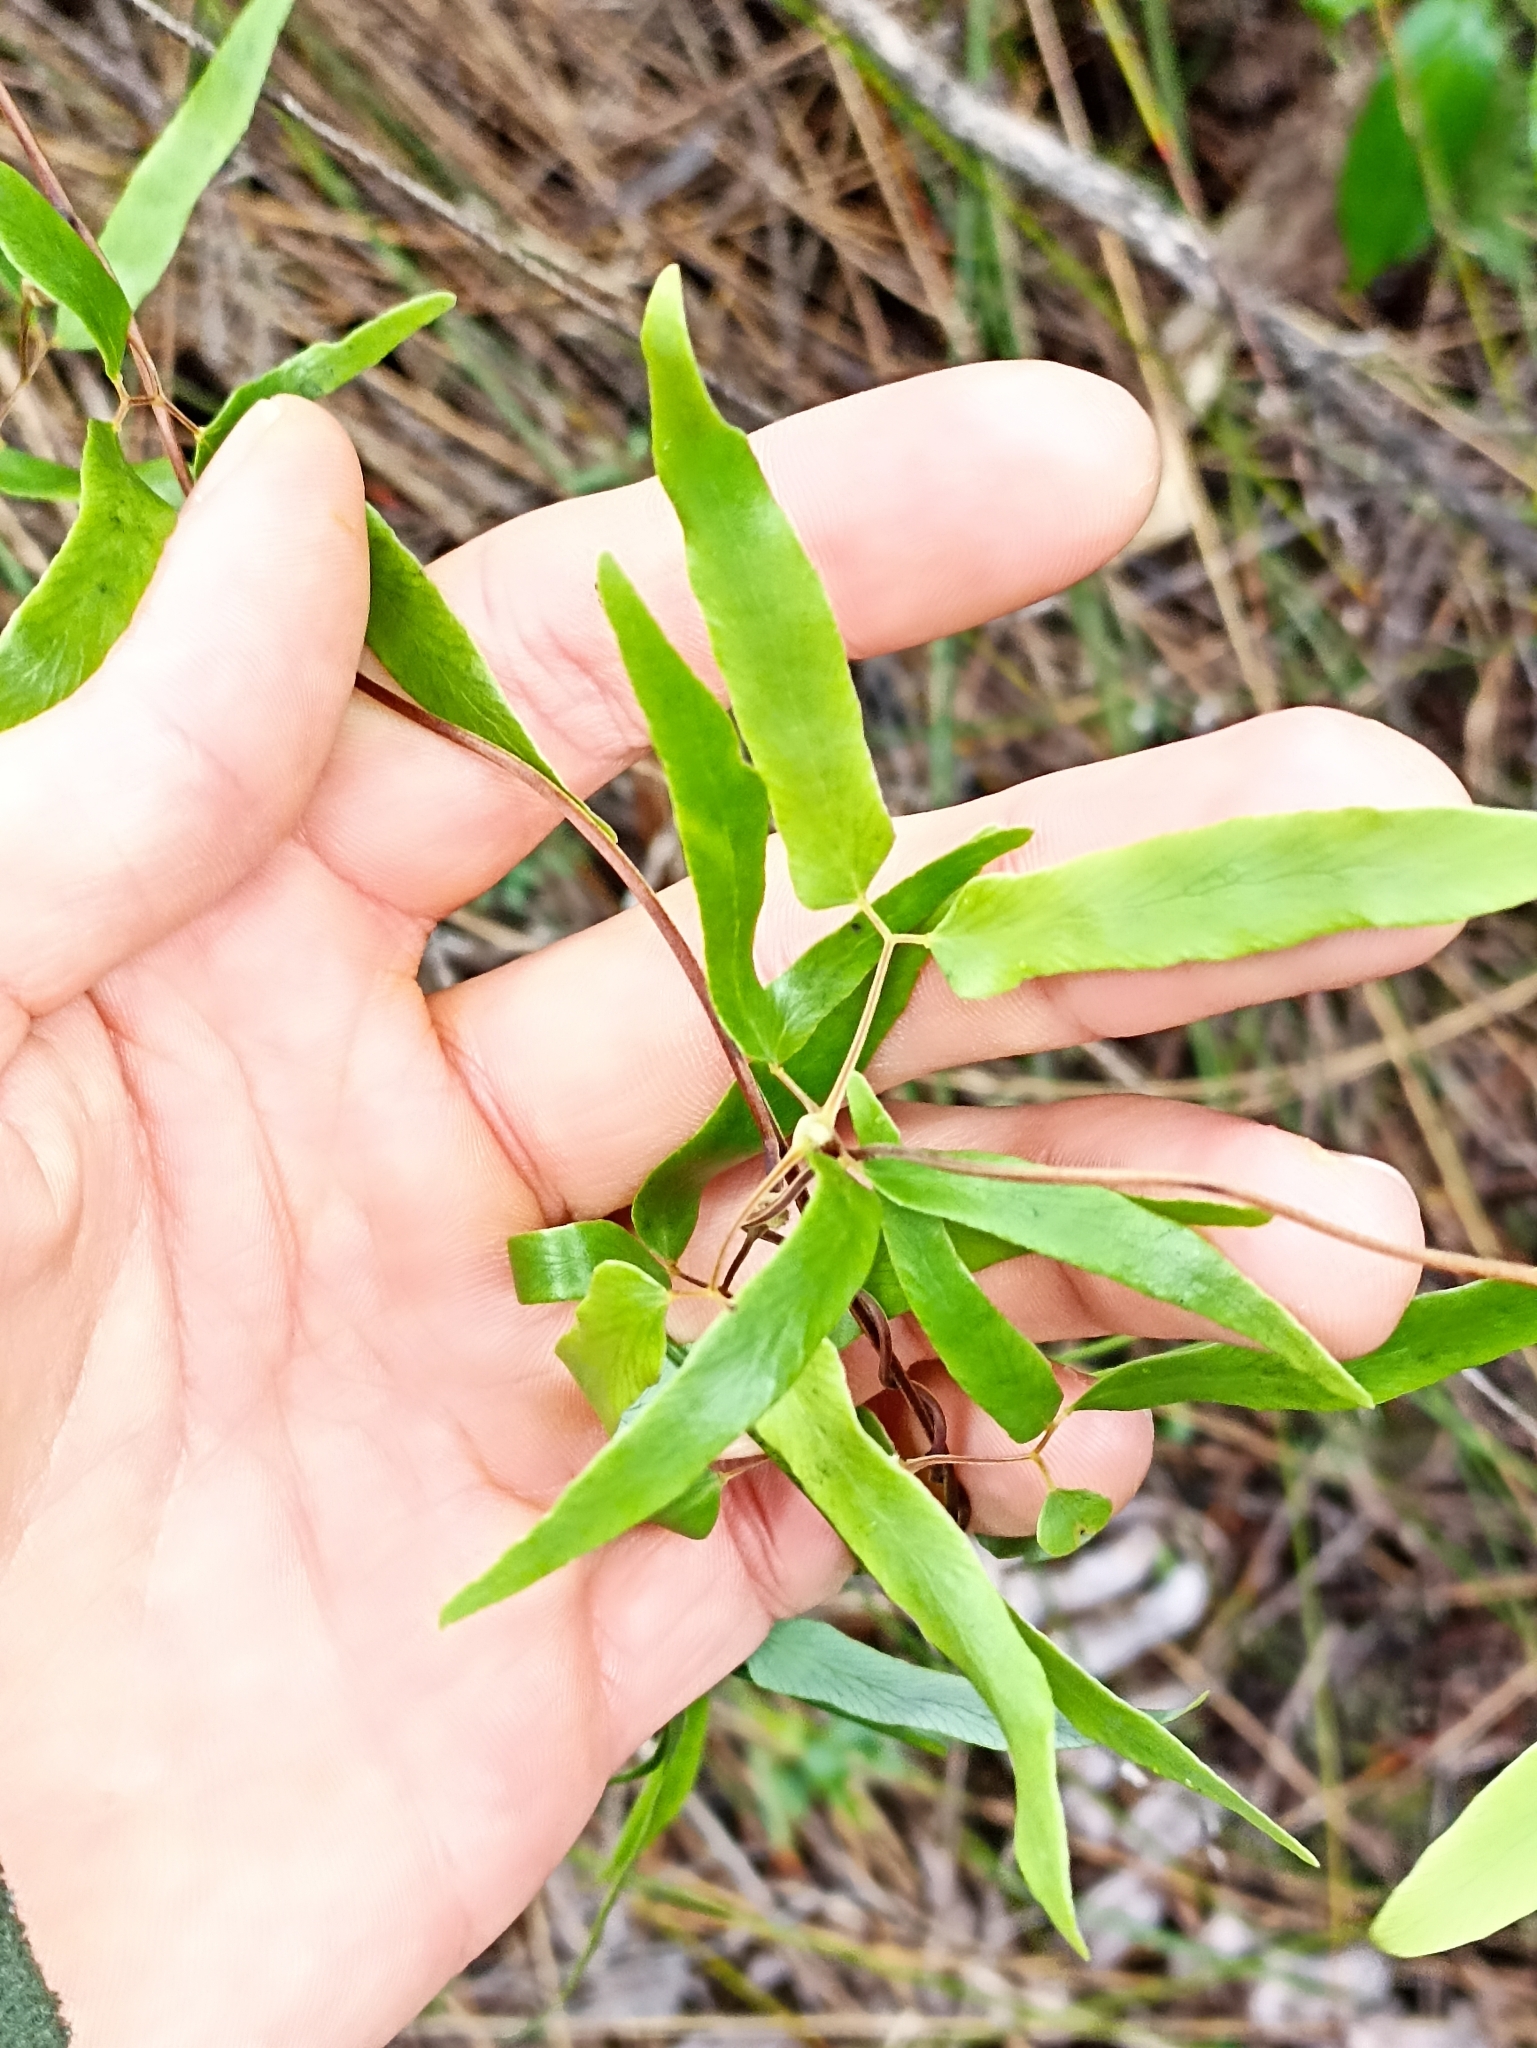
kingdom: Plantae
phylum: Tracheophyta
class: Polypodiopsida
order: Schizaeales
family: Lygodiaceae
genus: Lygodium
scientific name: Lygodium articulatum
